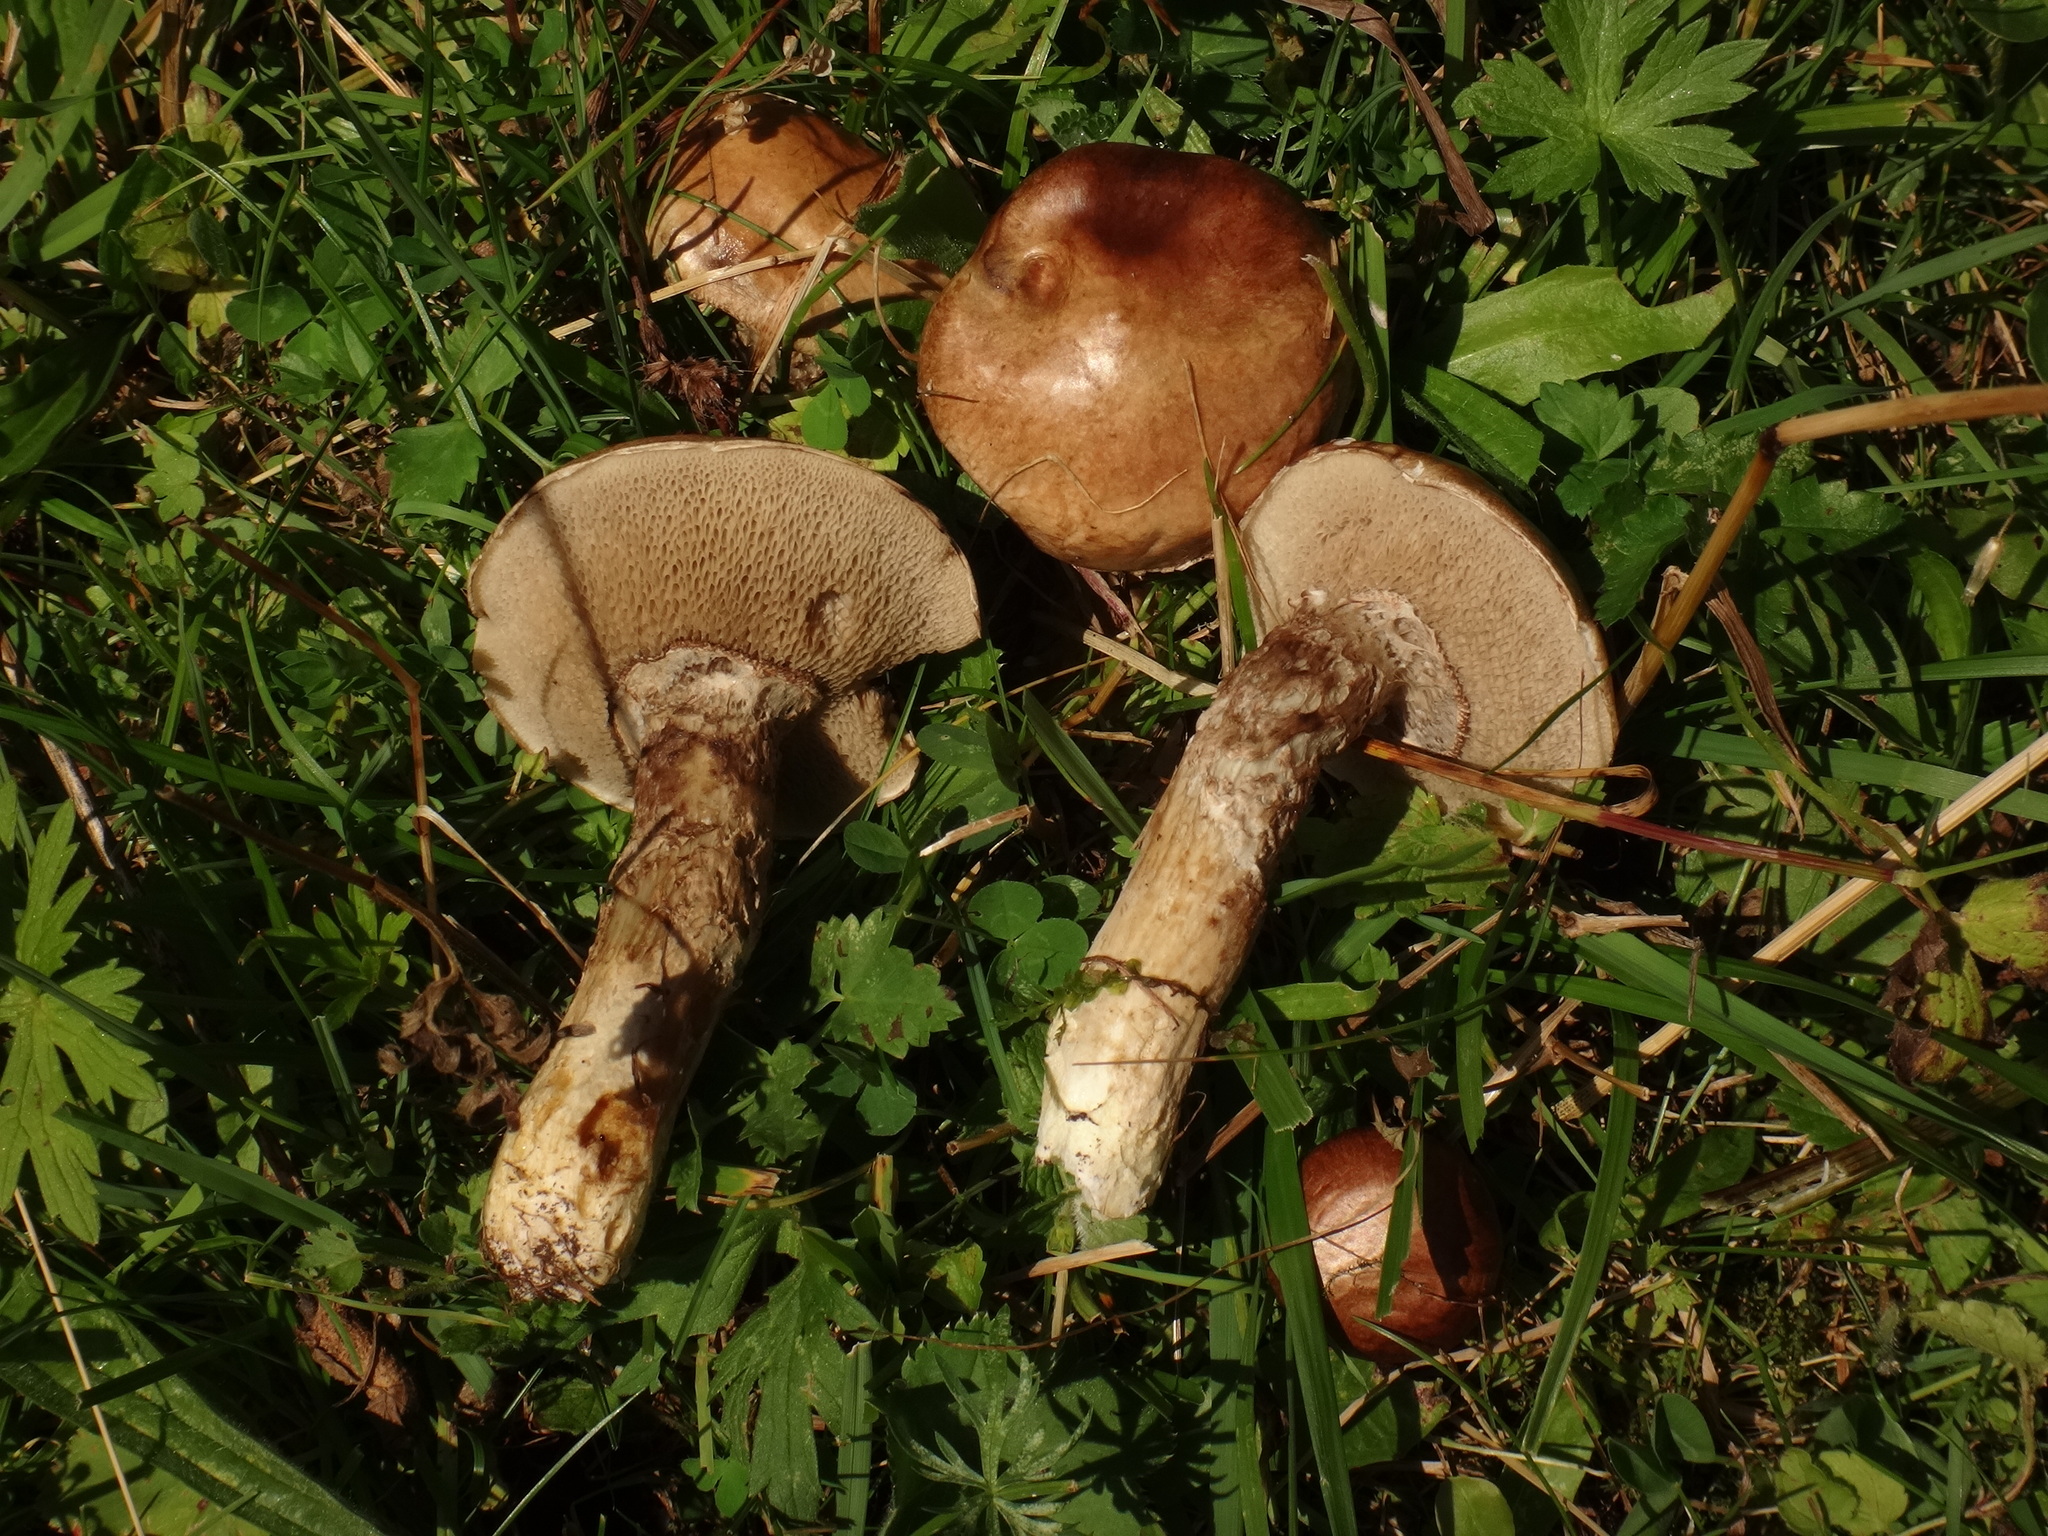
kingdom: Fungi
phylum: Basidiomycota
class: Agaricomycetes
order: Boletales
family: Suillaceae
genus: Suillus
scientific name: Suillus viscidus
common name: Sticky bolete
